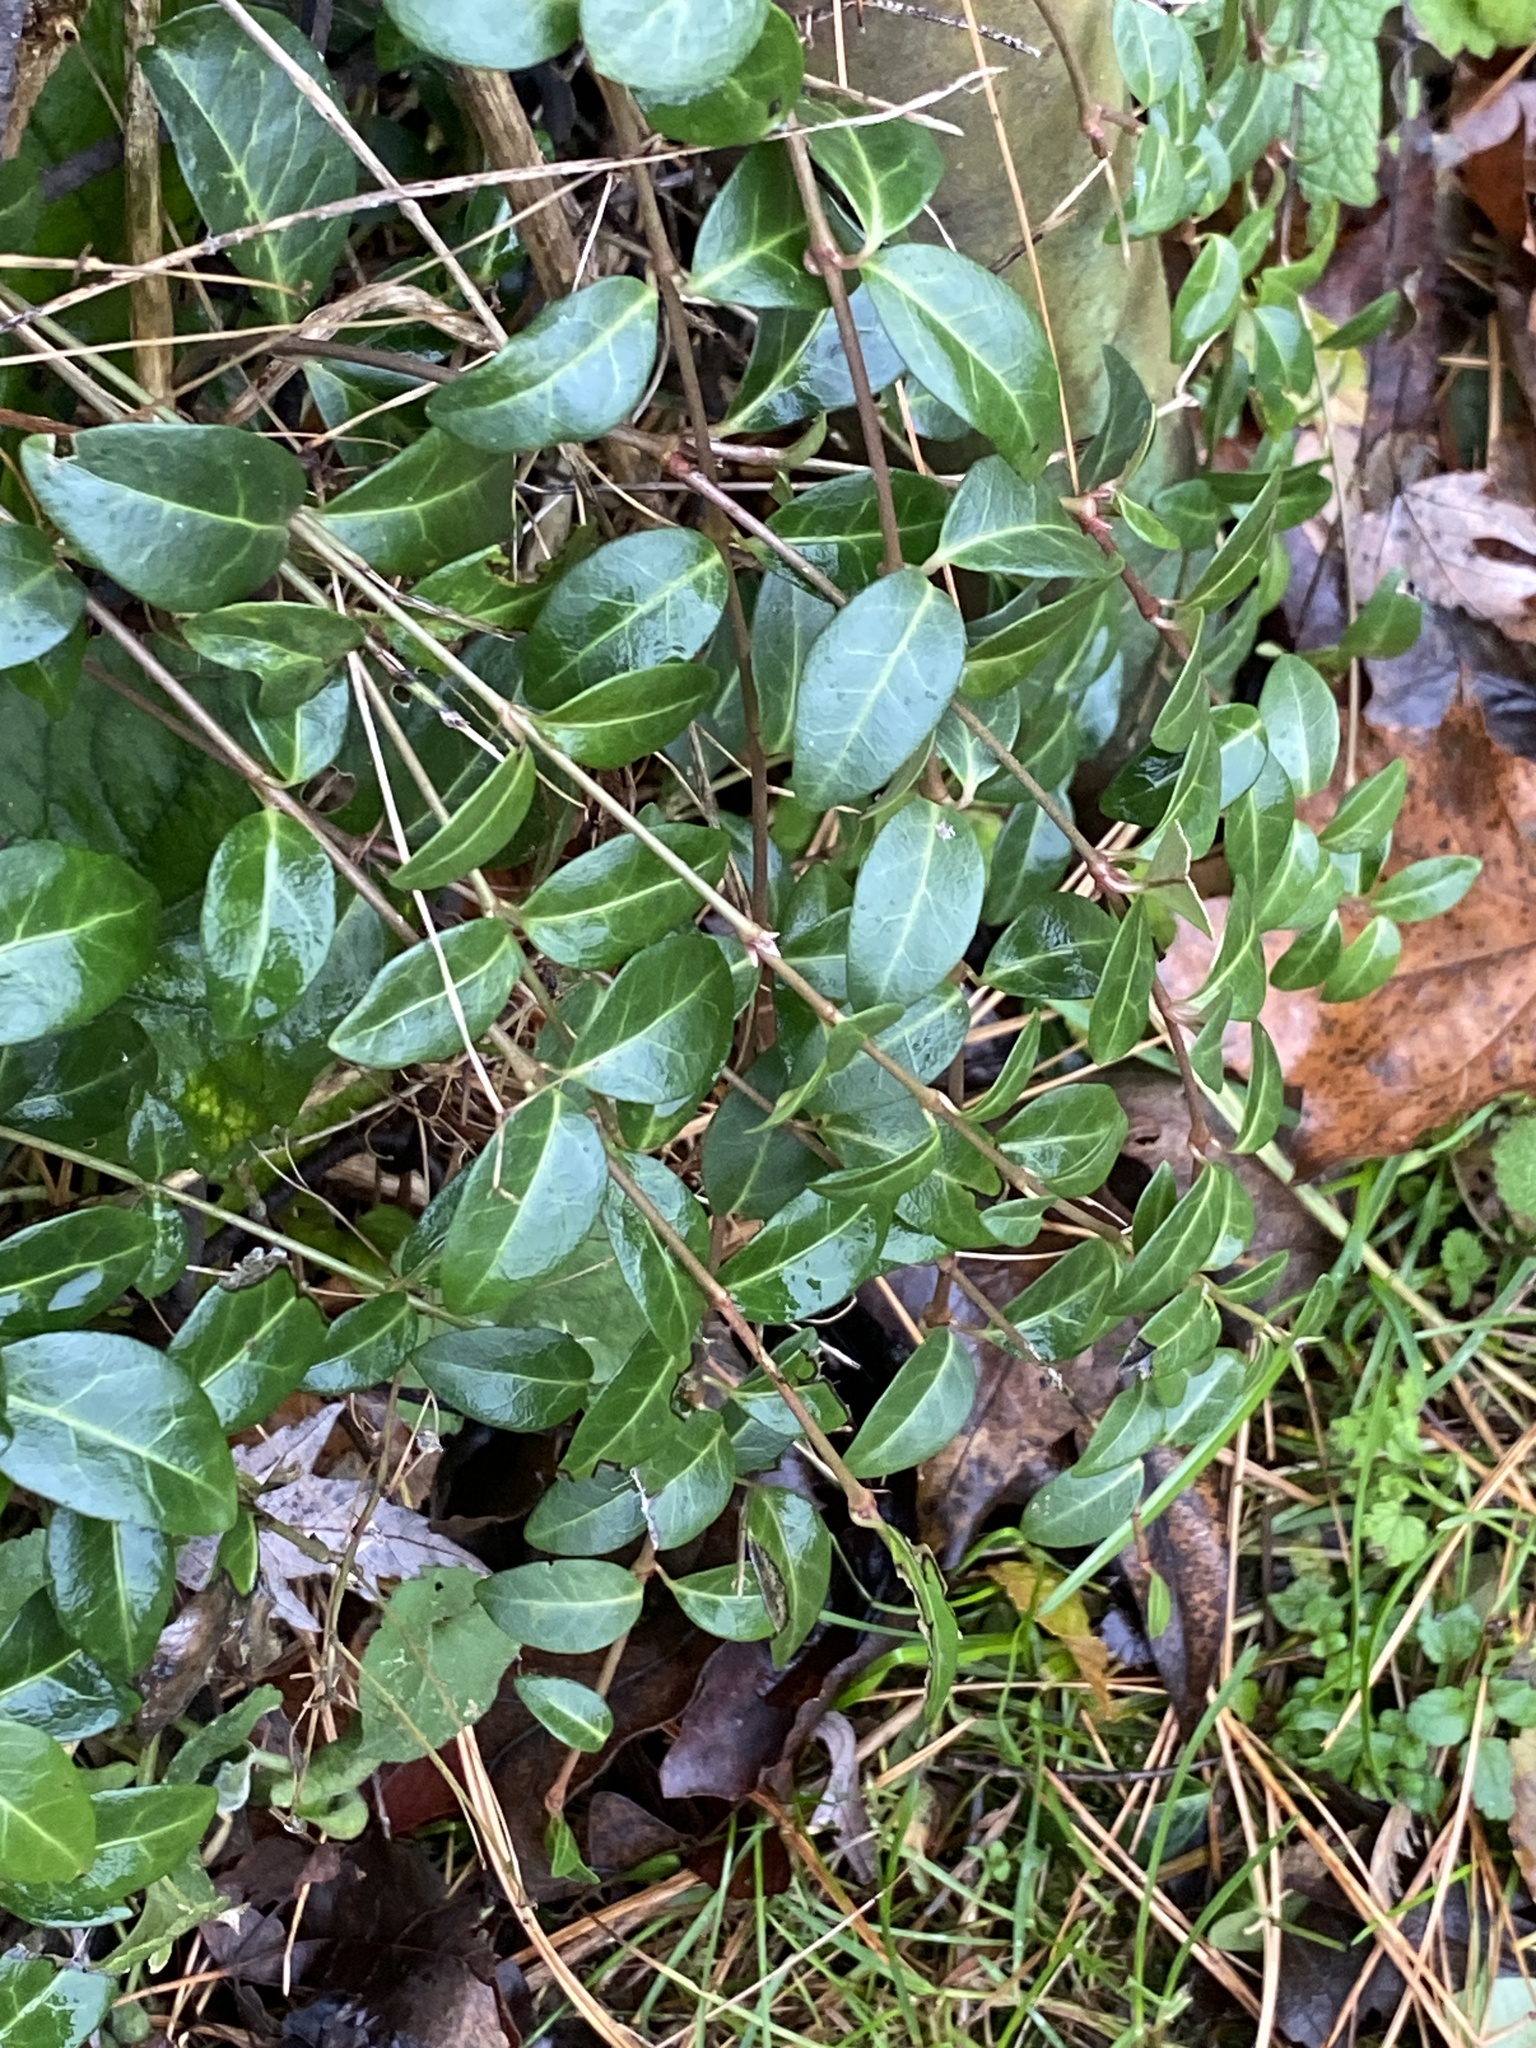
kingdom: Plantae
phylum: Tracheophyta
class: Magnoliopsida
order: Gentianales
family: Apocynaceae
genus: Vinca
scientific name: Vinca minor
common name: Lesser periwinkle
